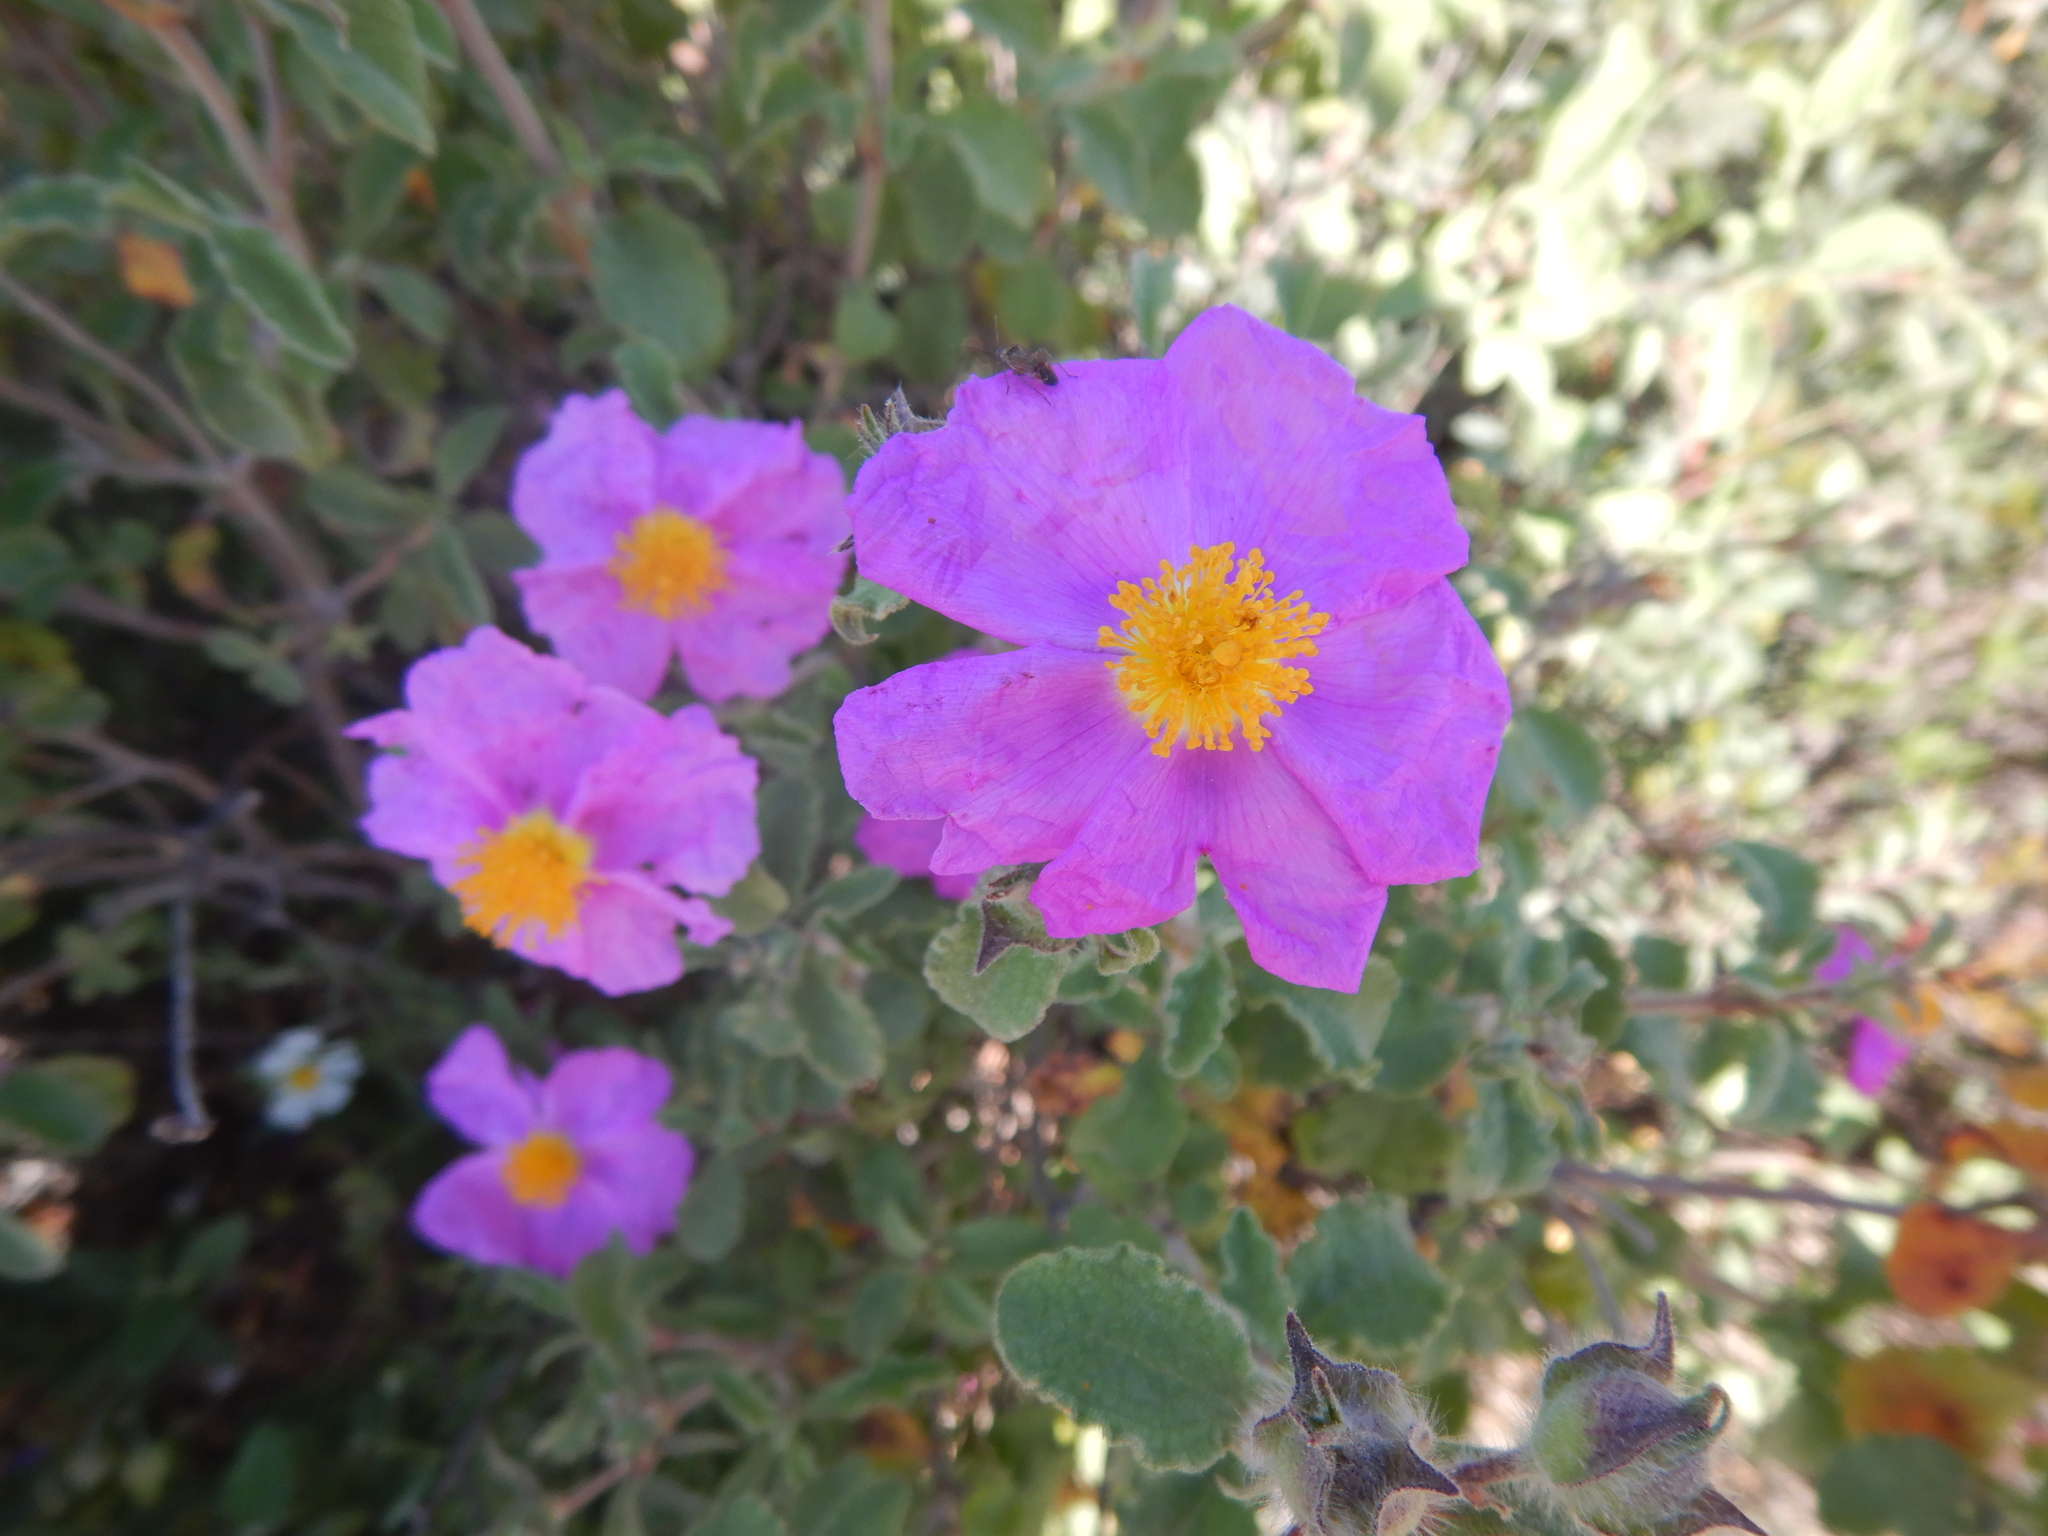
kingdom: Plantae
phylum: Tracheophyta
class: Magnoliopsida
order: Malvales
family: Cistaceae
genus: Cistus
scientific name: Cistus creticus
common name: Cretan rockrose
